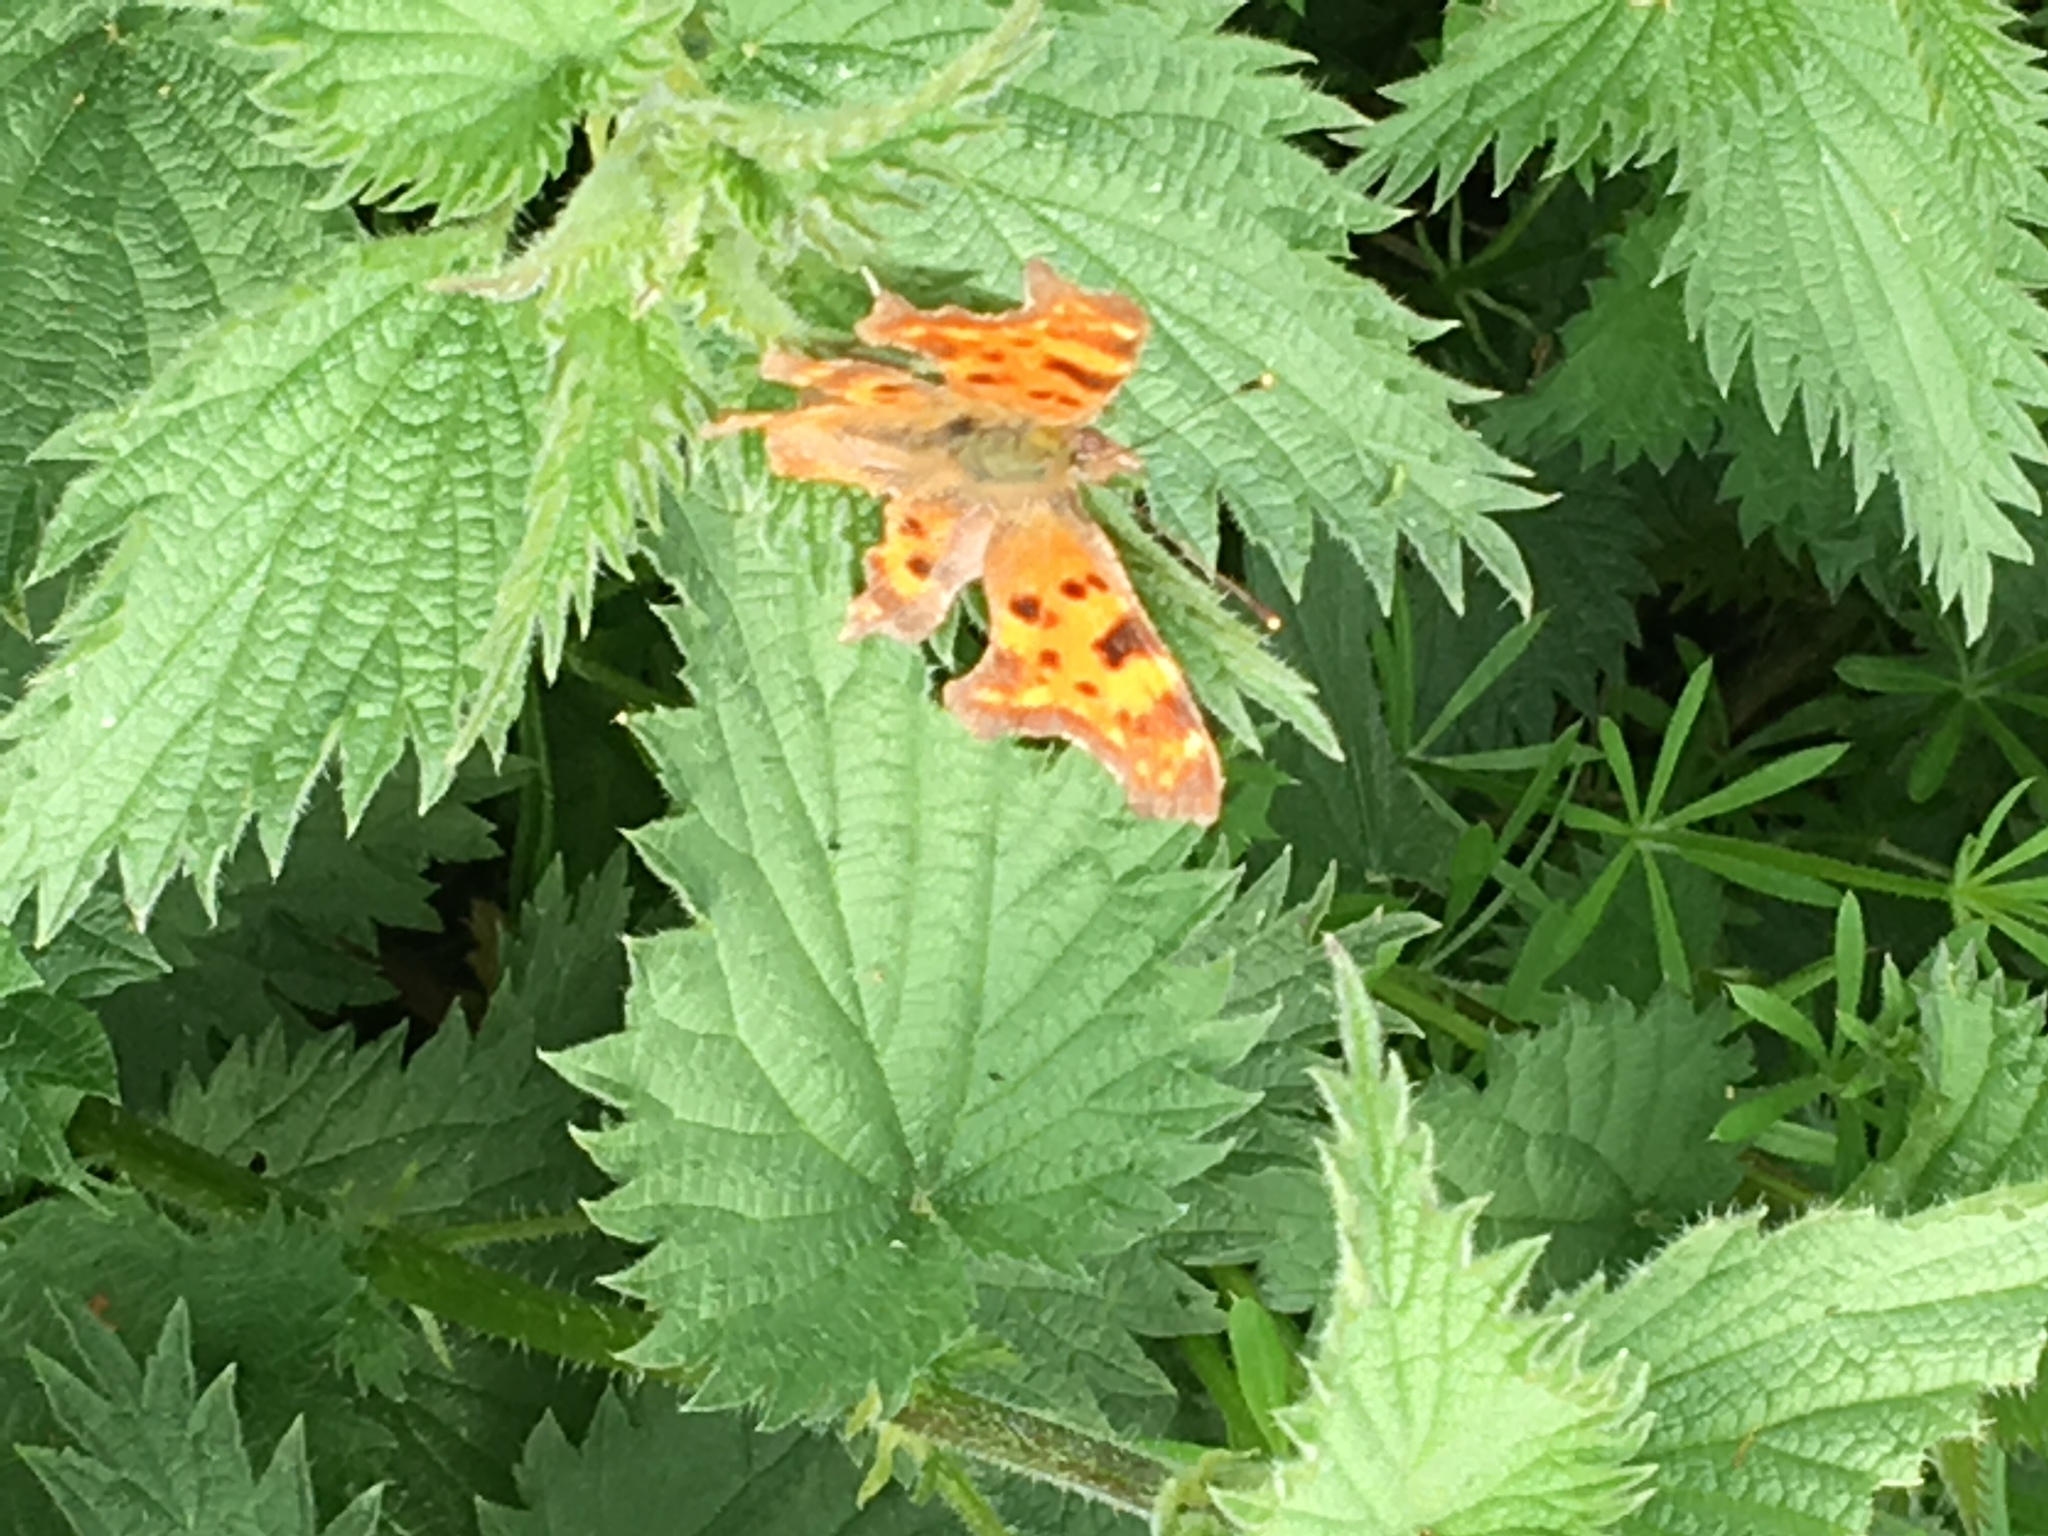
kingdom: Animalia
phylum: Arthropoda
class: Insecta
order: Lepidoptera
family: Nymphalidae
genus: Polygonia
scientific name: Polygonia c-album
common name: Comma
